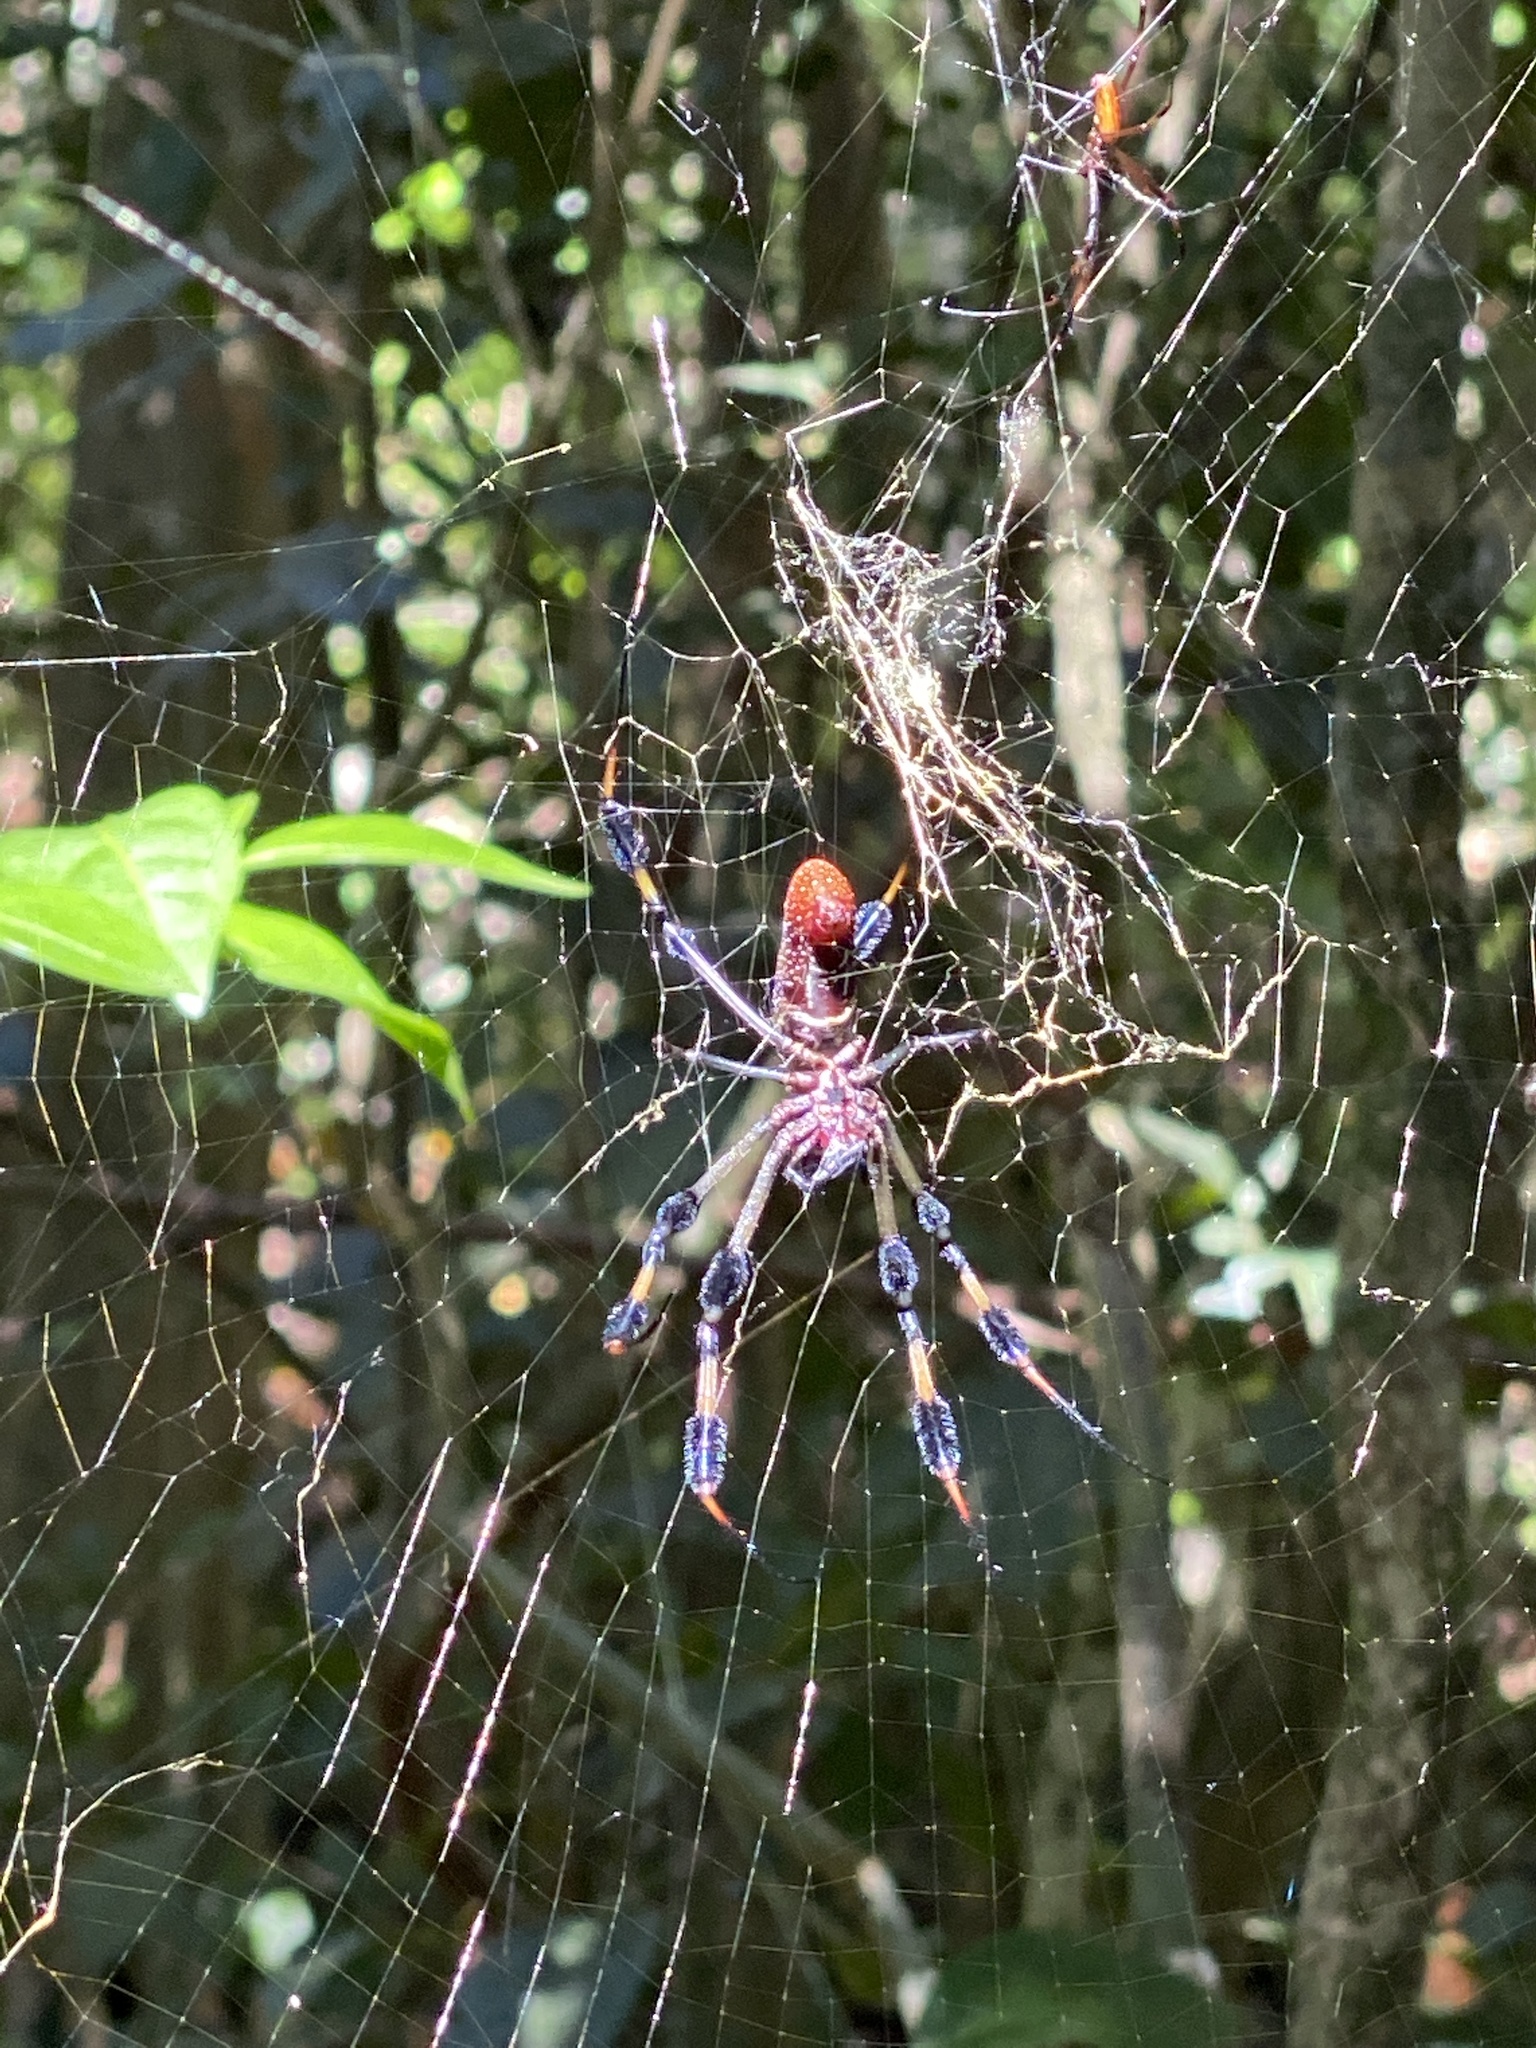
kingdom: Animalia
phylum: Arthropoda
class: Arachnida
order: Araneae
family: Araneidae
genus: Trichonephila
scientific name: Trichonephila clavipes
